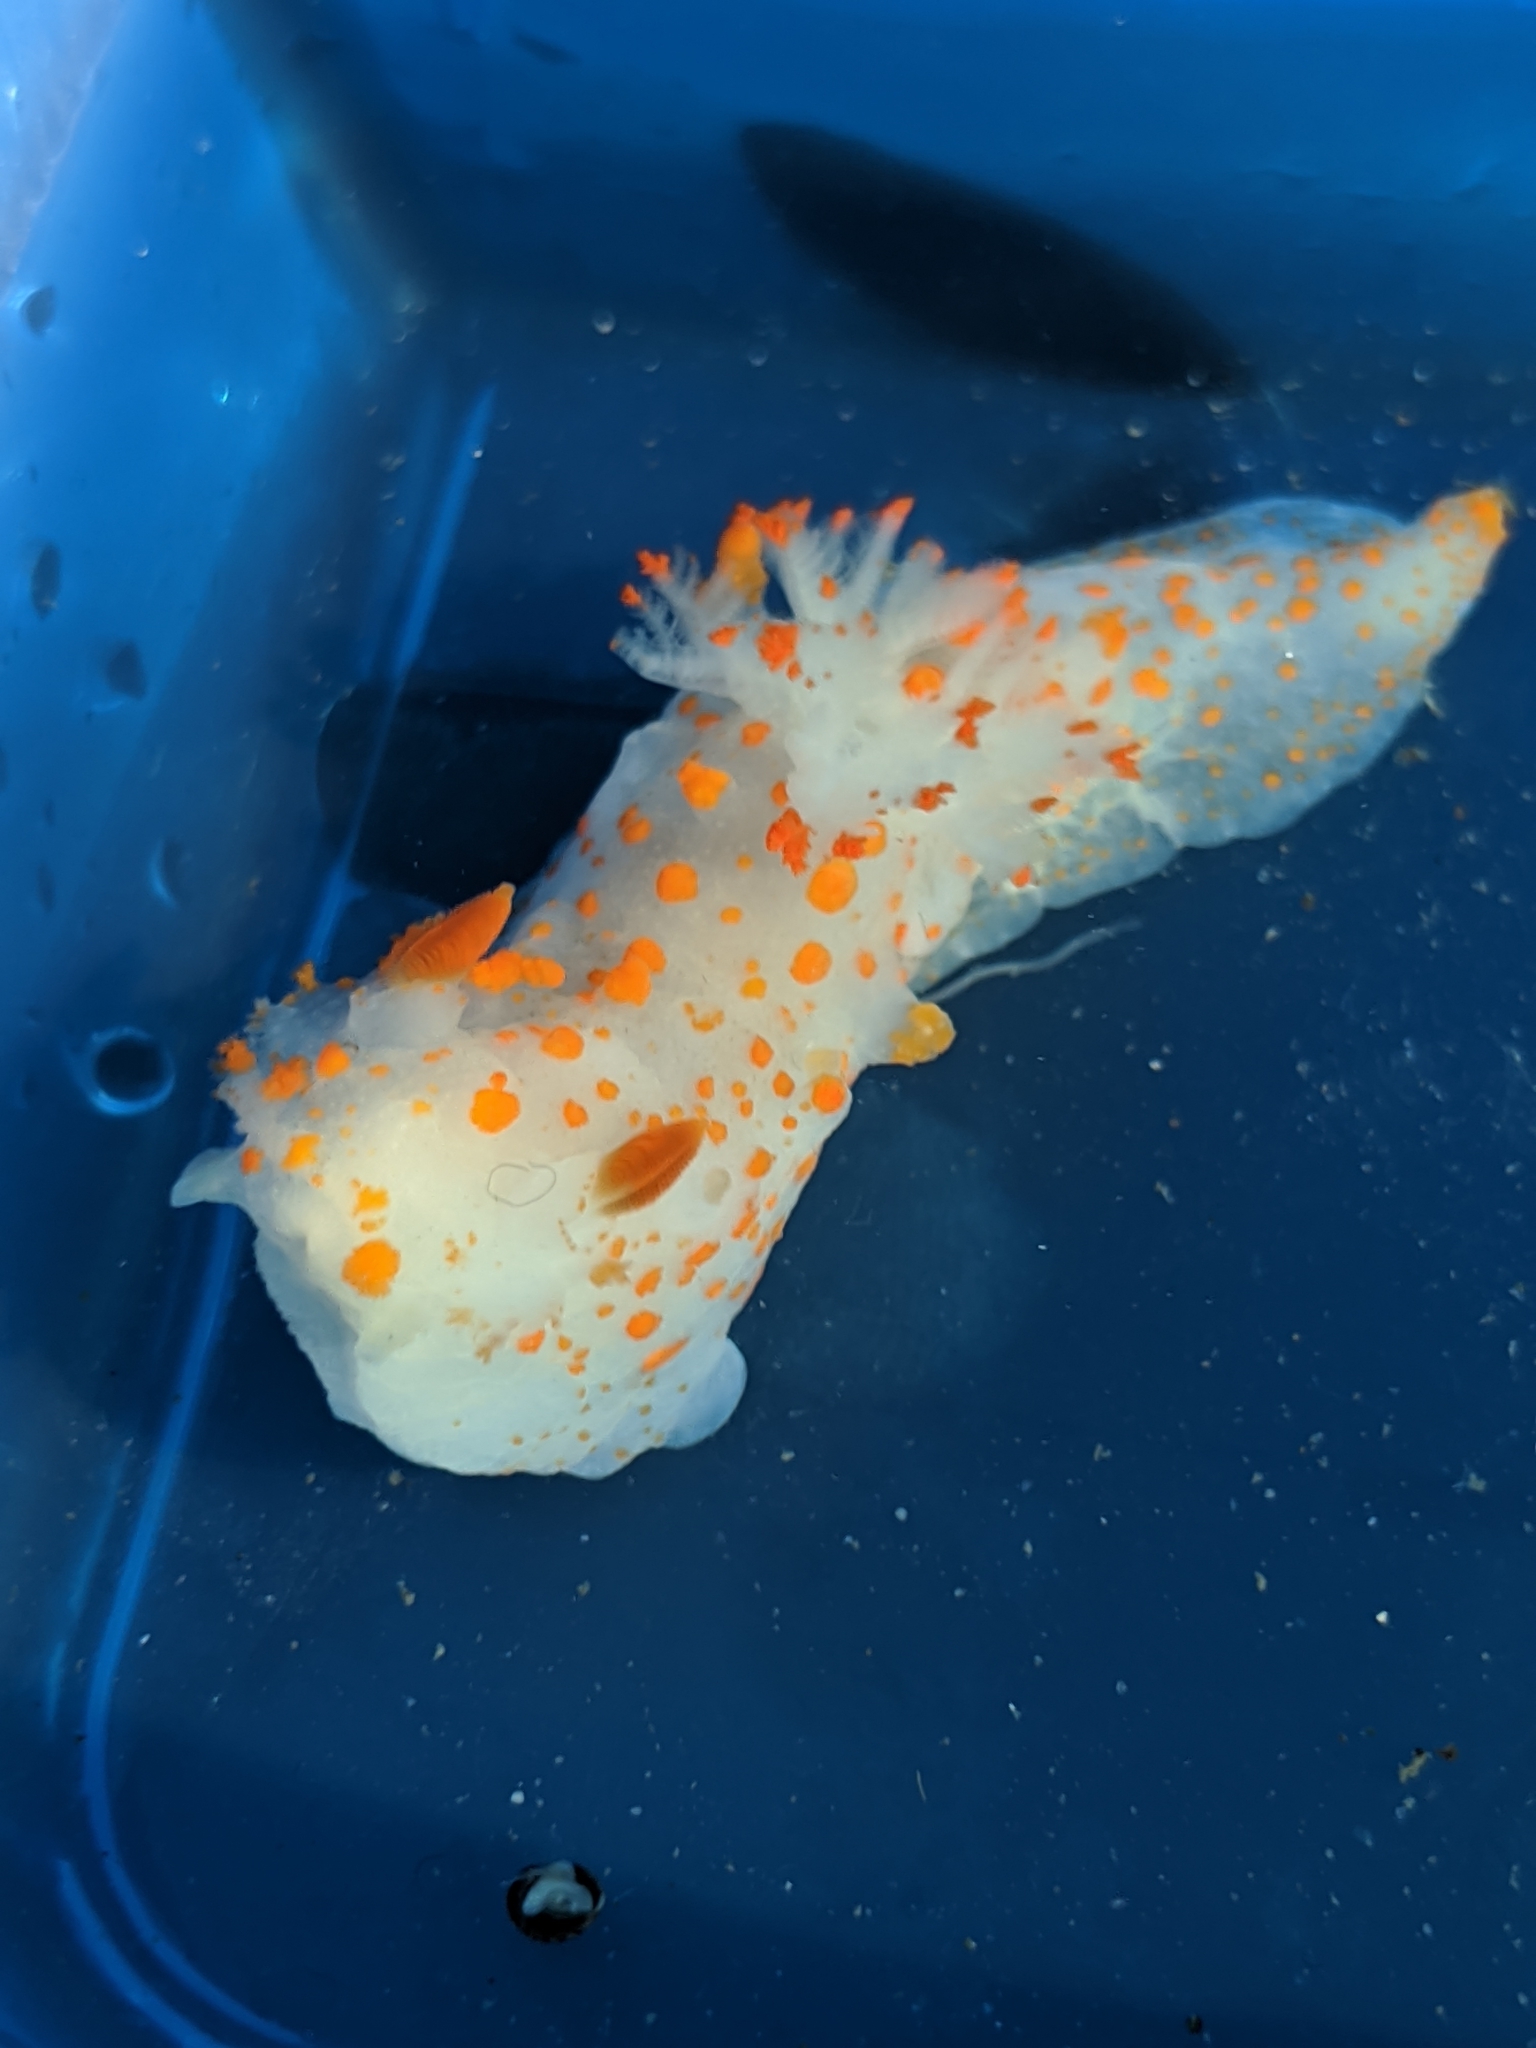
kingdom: Animalia
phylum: Mollusca
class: Gastropoda
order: Nudibranchia
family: Polyceridae
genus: Triopha
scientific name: Triopha catalinae
